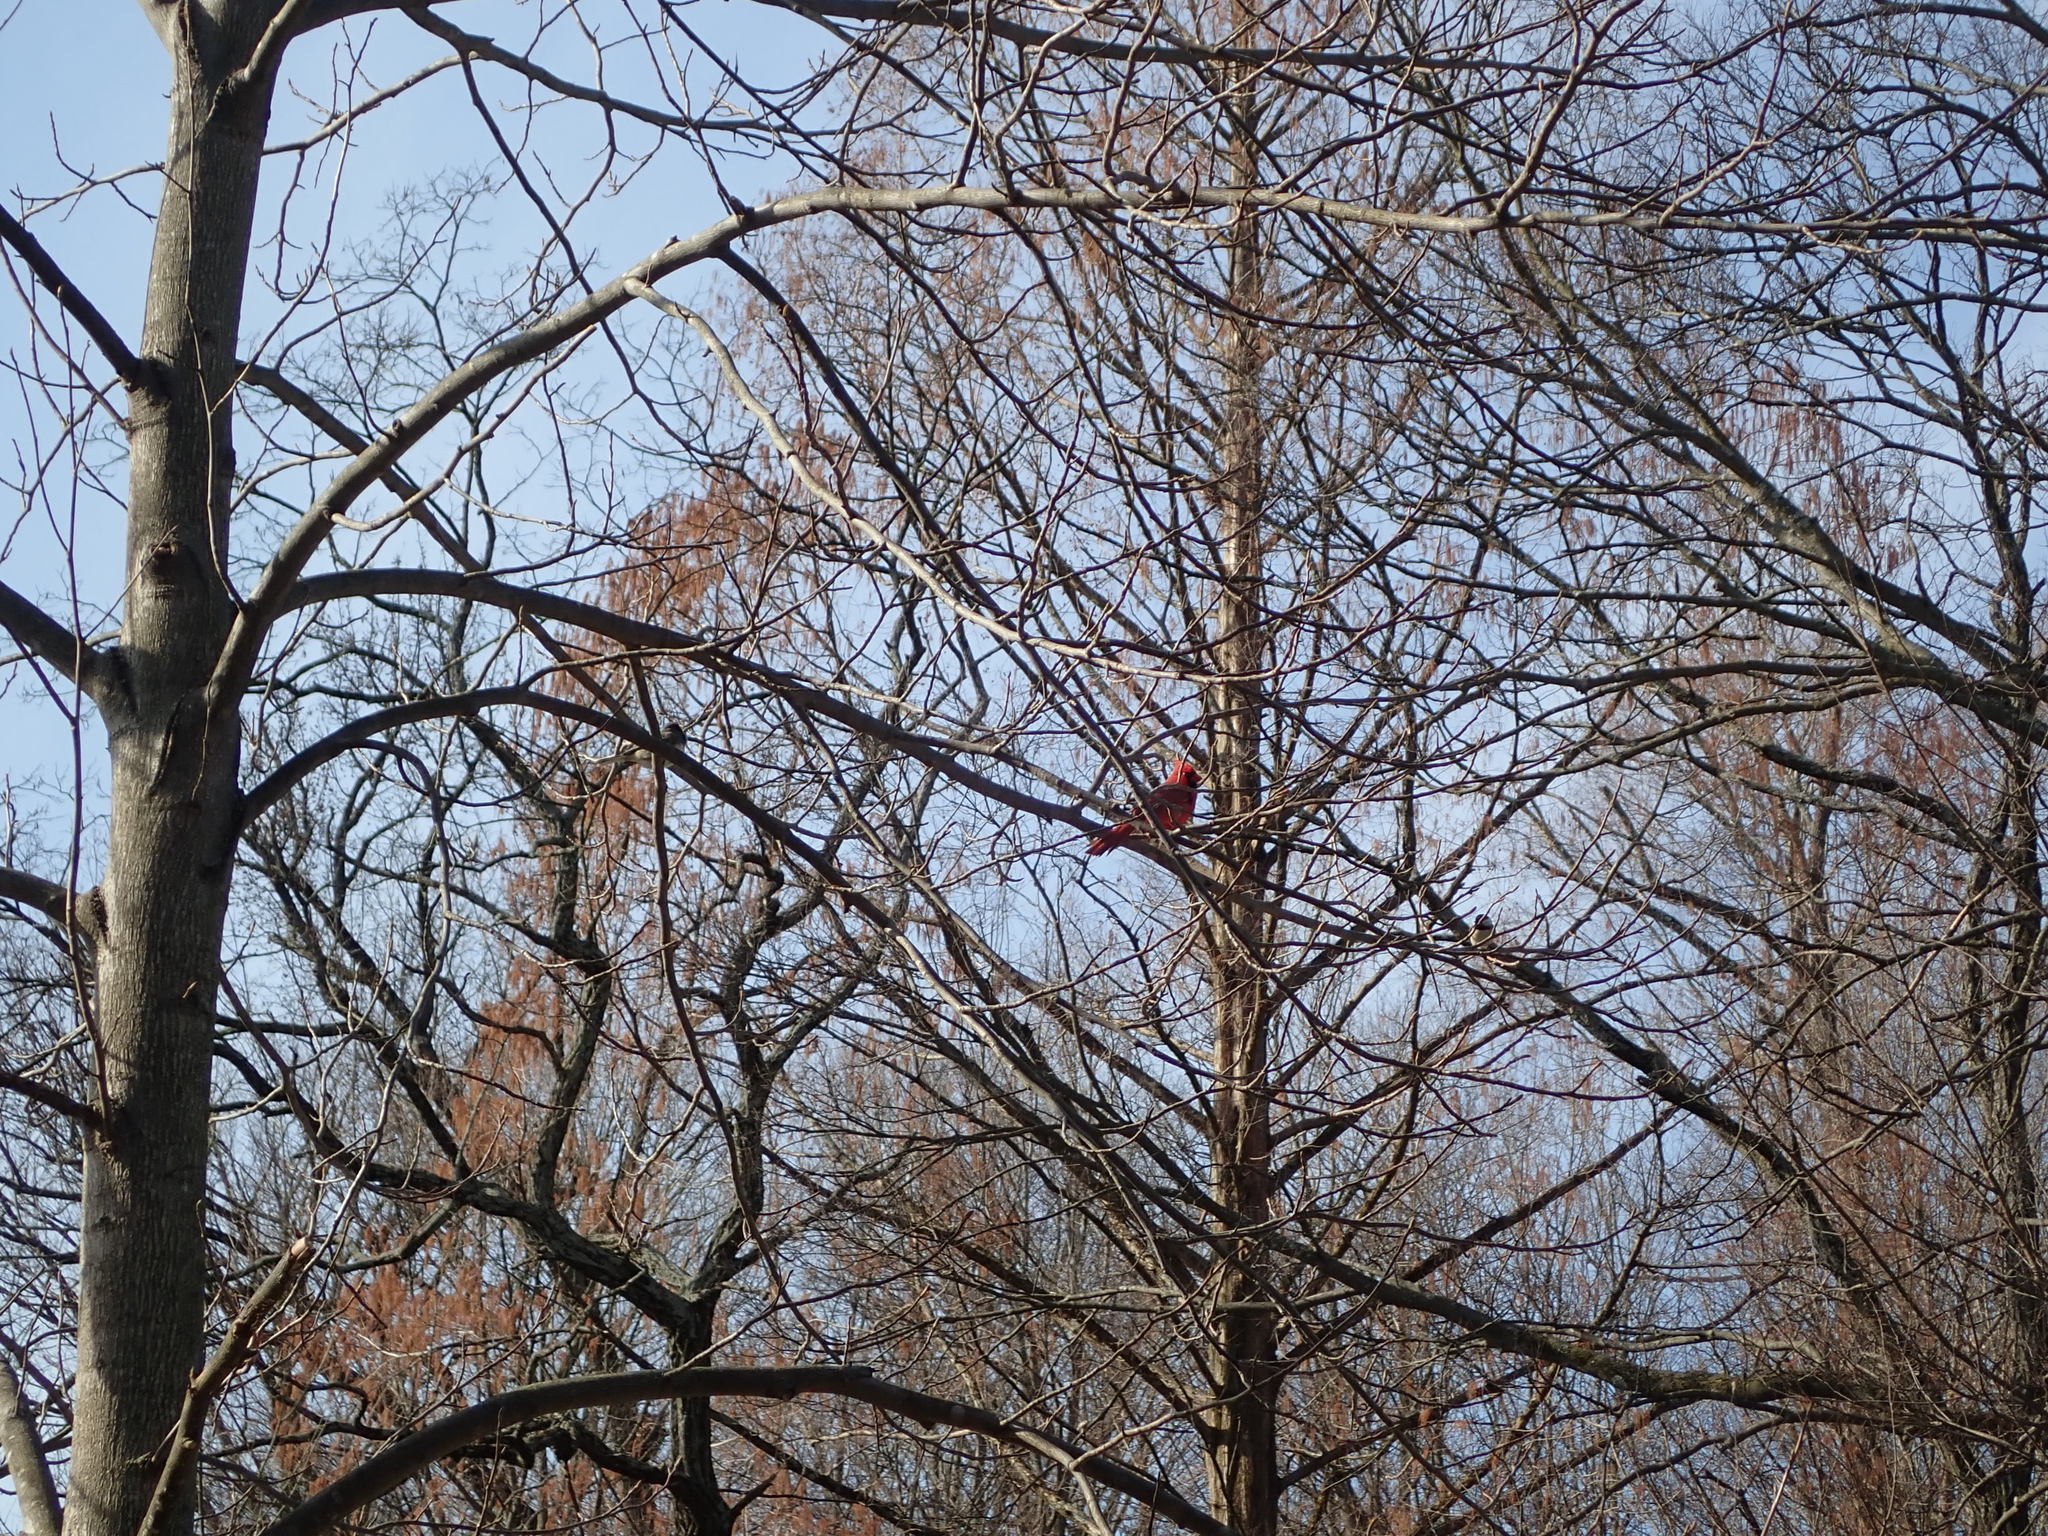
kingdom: Animalia
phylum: Chordata
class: Aves
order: Passeriformes
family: Cardinalidae
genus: Cardinalis
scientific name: Cardinalis cardinalis
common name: Northern cardinal
